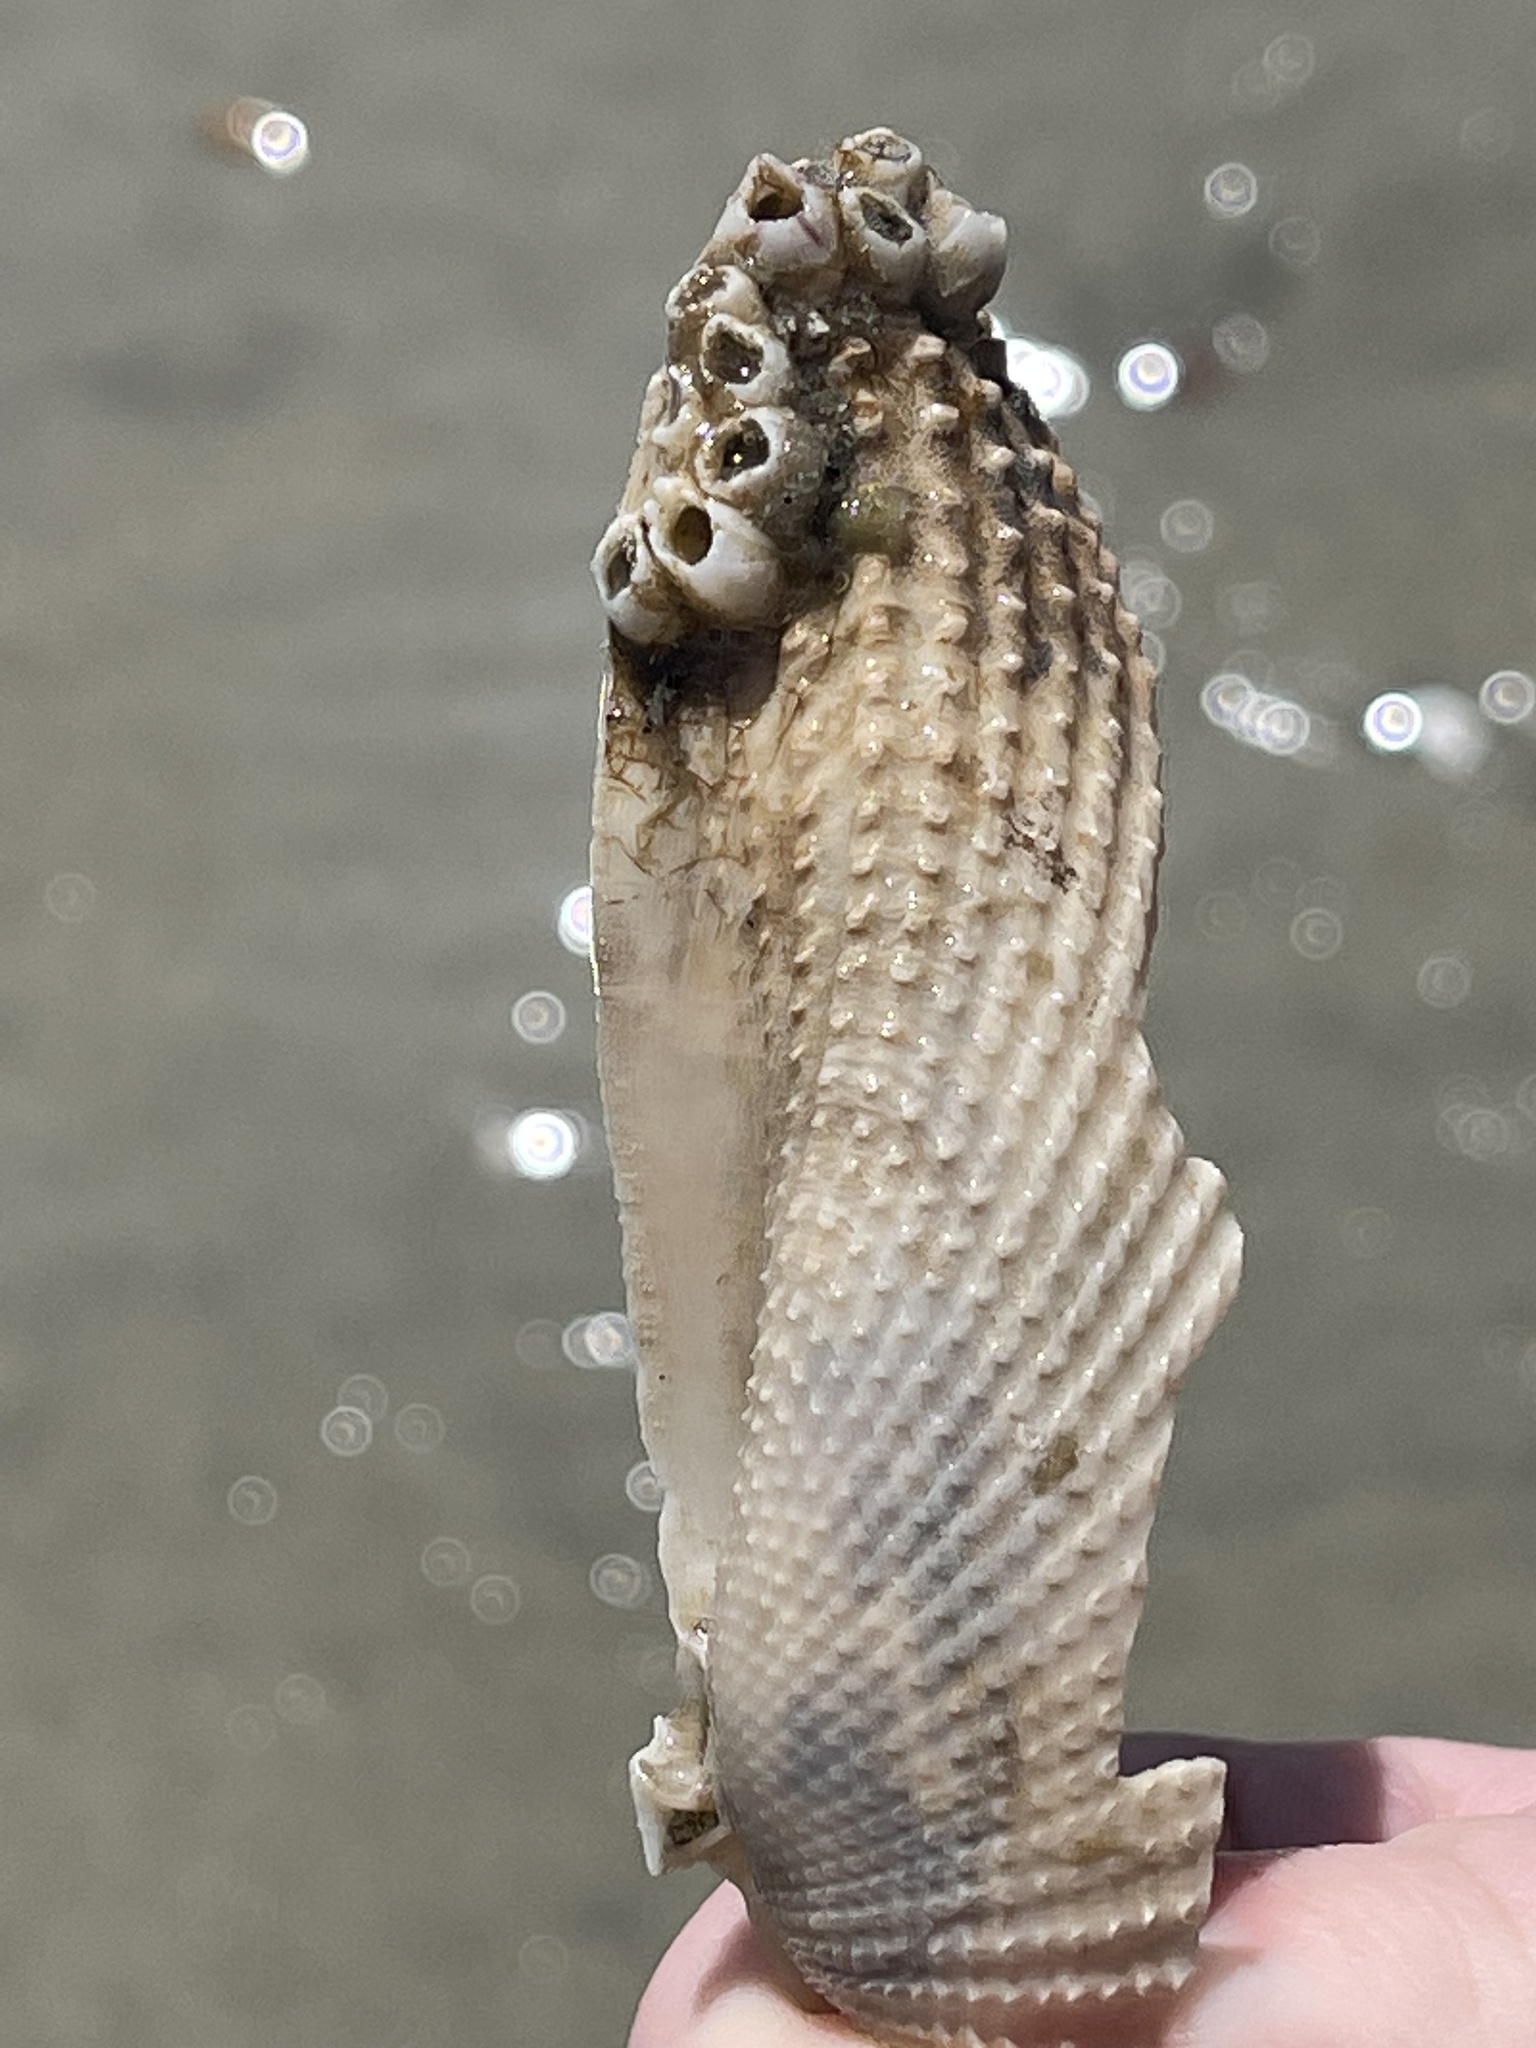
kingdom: Animalia
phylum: Mollusca
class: Bivalvia
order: Myida
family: Pholadidae
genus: Cyrtopleura
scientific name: Cyrtopleura costata
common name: Angel wing
